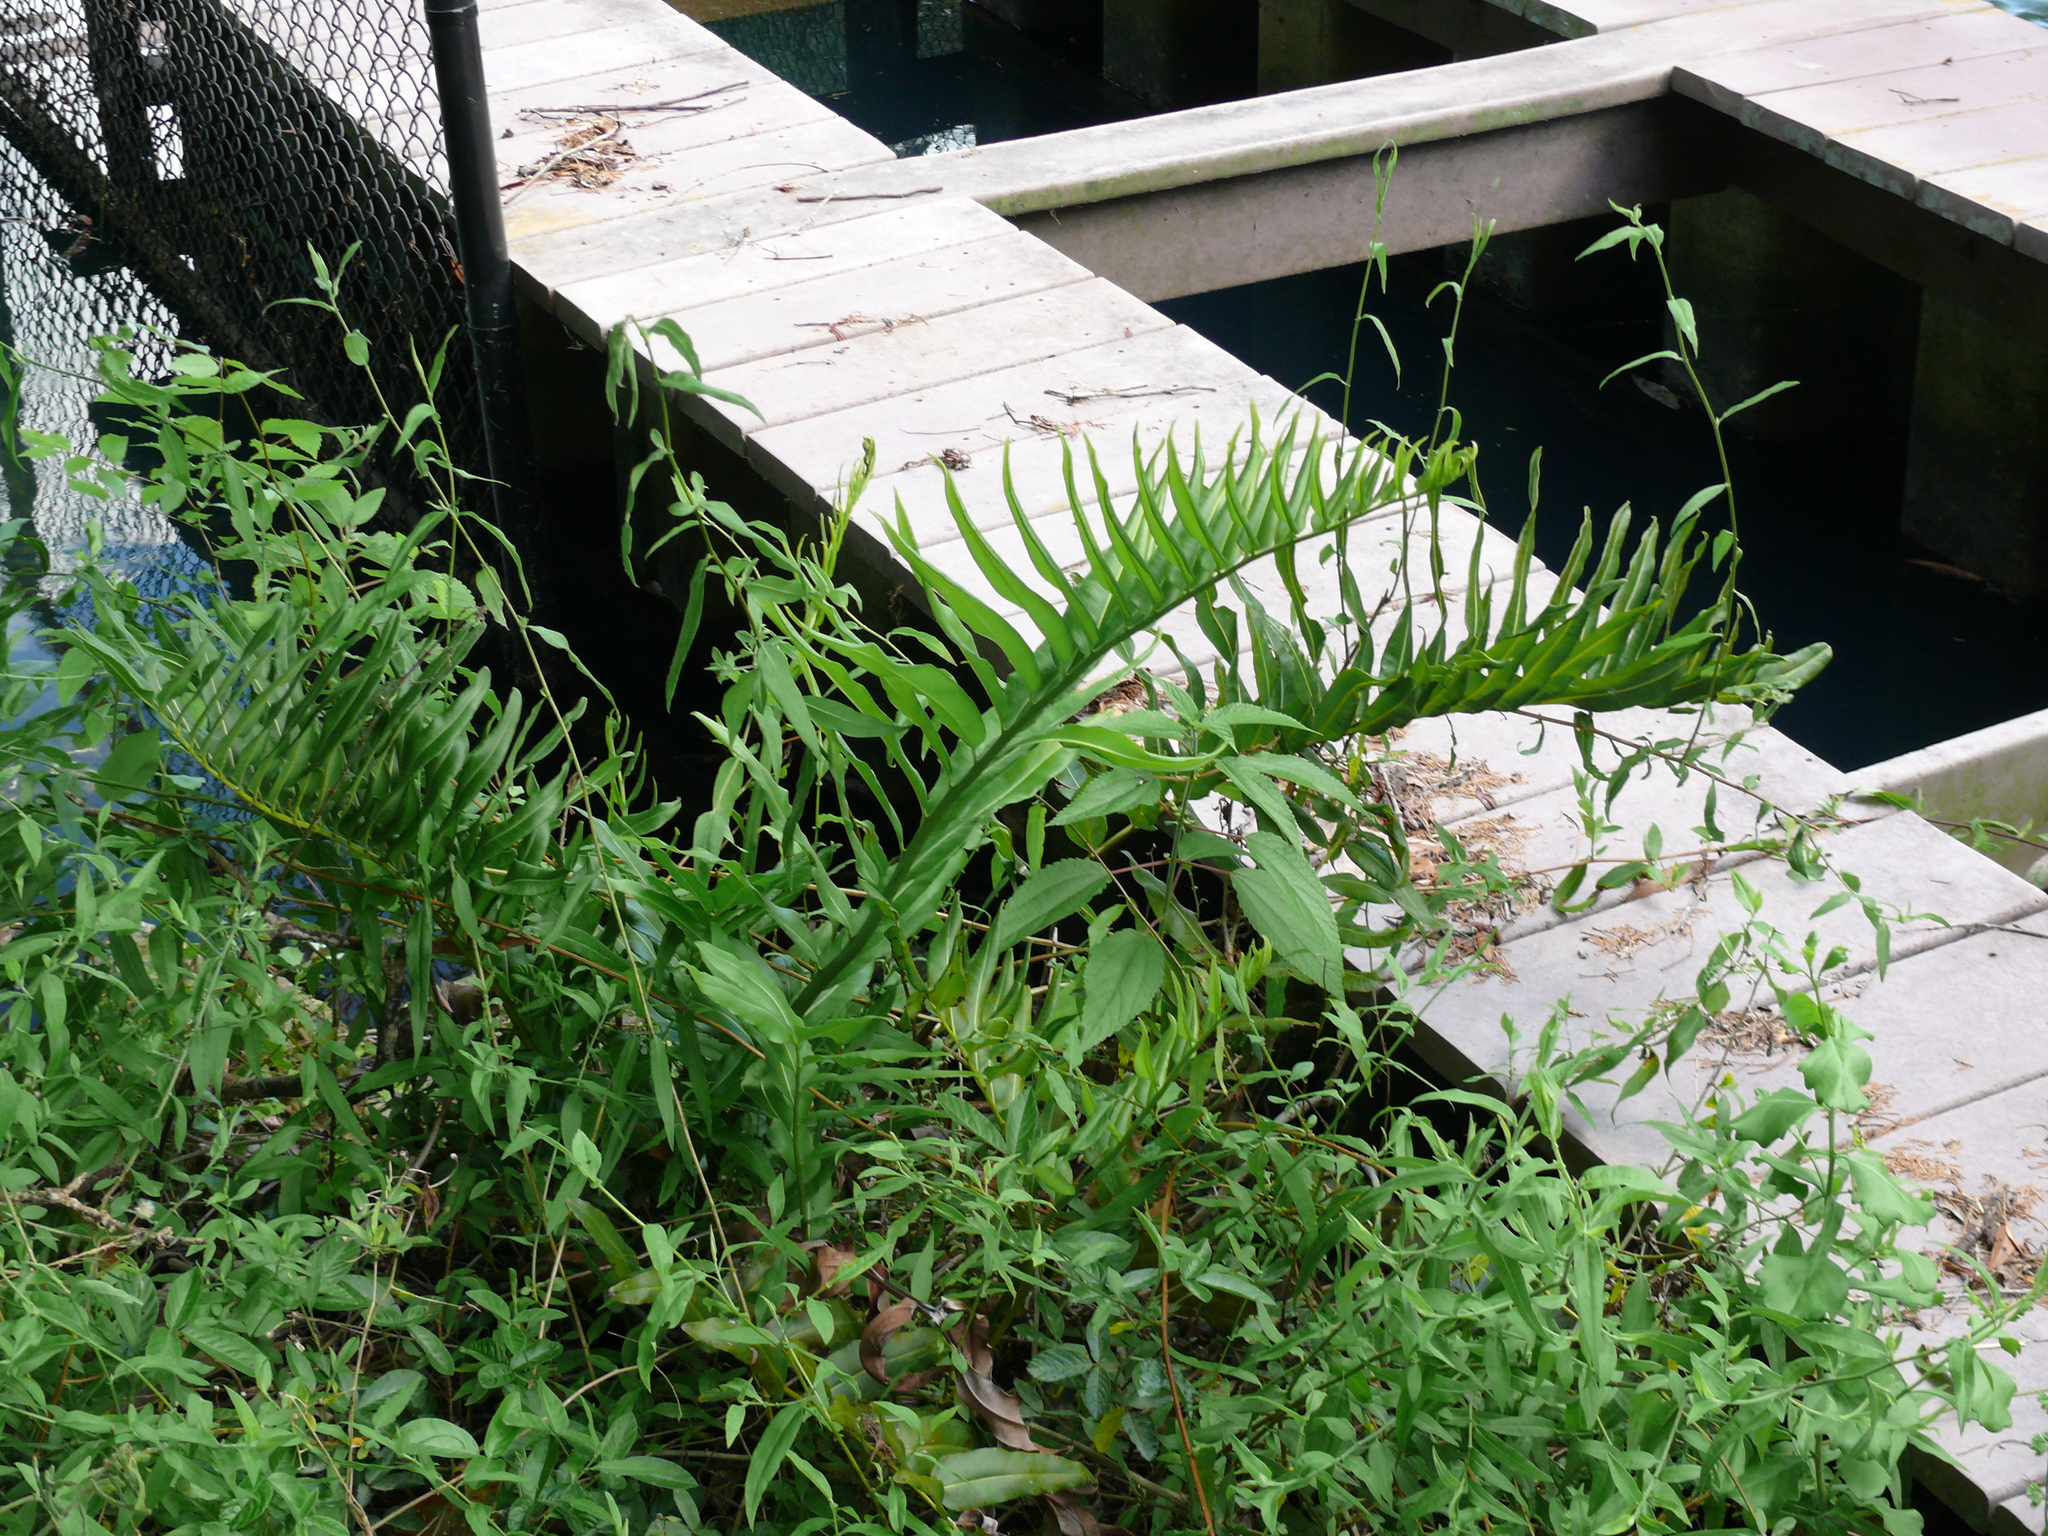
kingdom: Plantae
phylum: Tracheophyta
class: Polypodiopsida
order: Polypodiales
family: Pteridaceae
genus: Acrostichum
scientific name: Acrostichum danaeifolium
